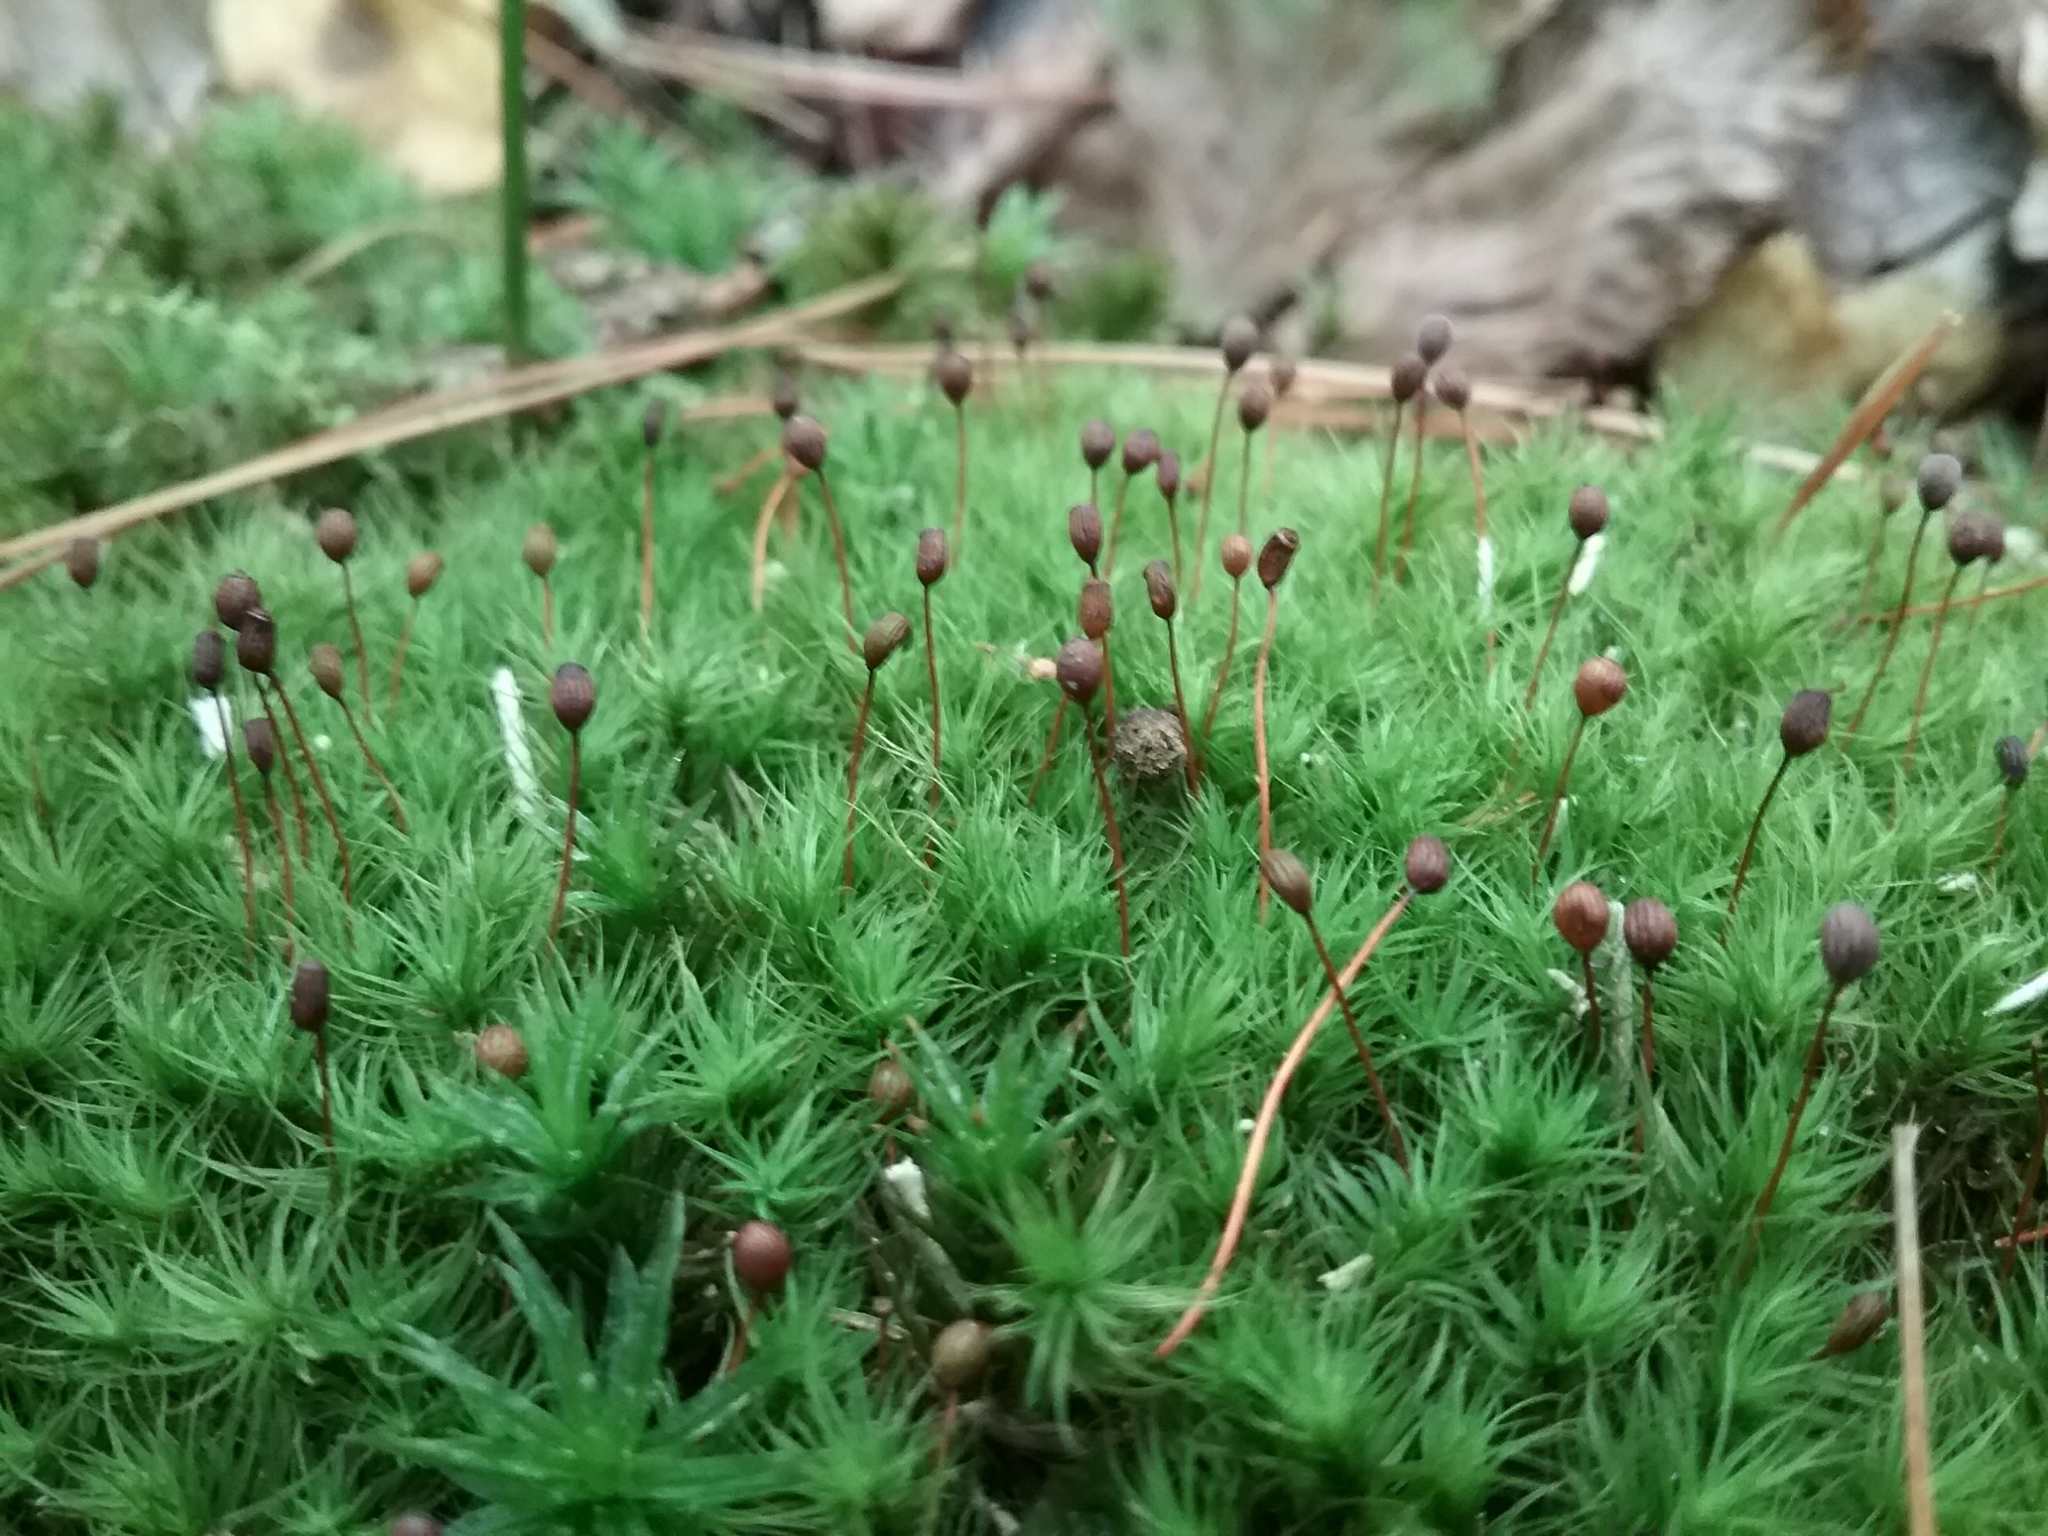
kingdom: Plantae
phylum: Bryophyta
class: Bryopsida
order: Bartramiales
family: Bartramiaceae
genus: Bartramia
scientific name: Bartramia ithyphylla
